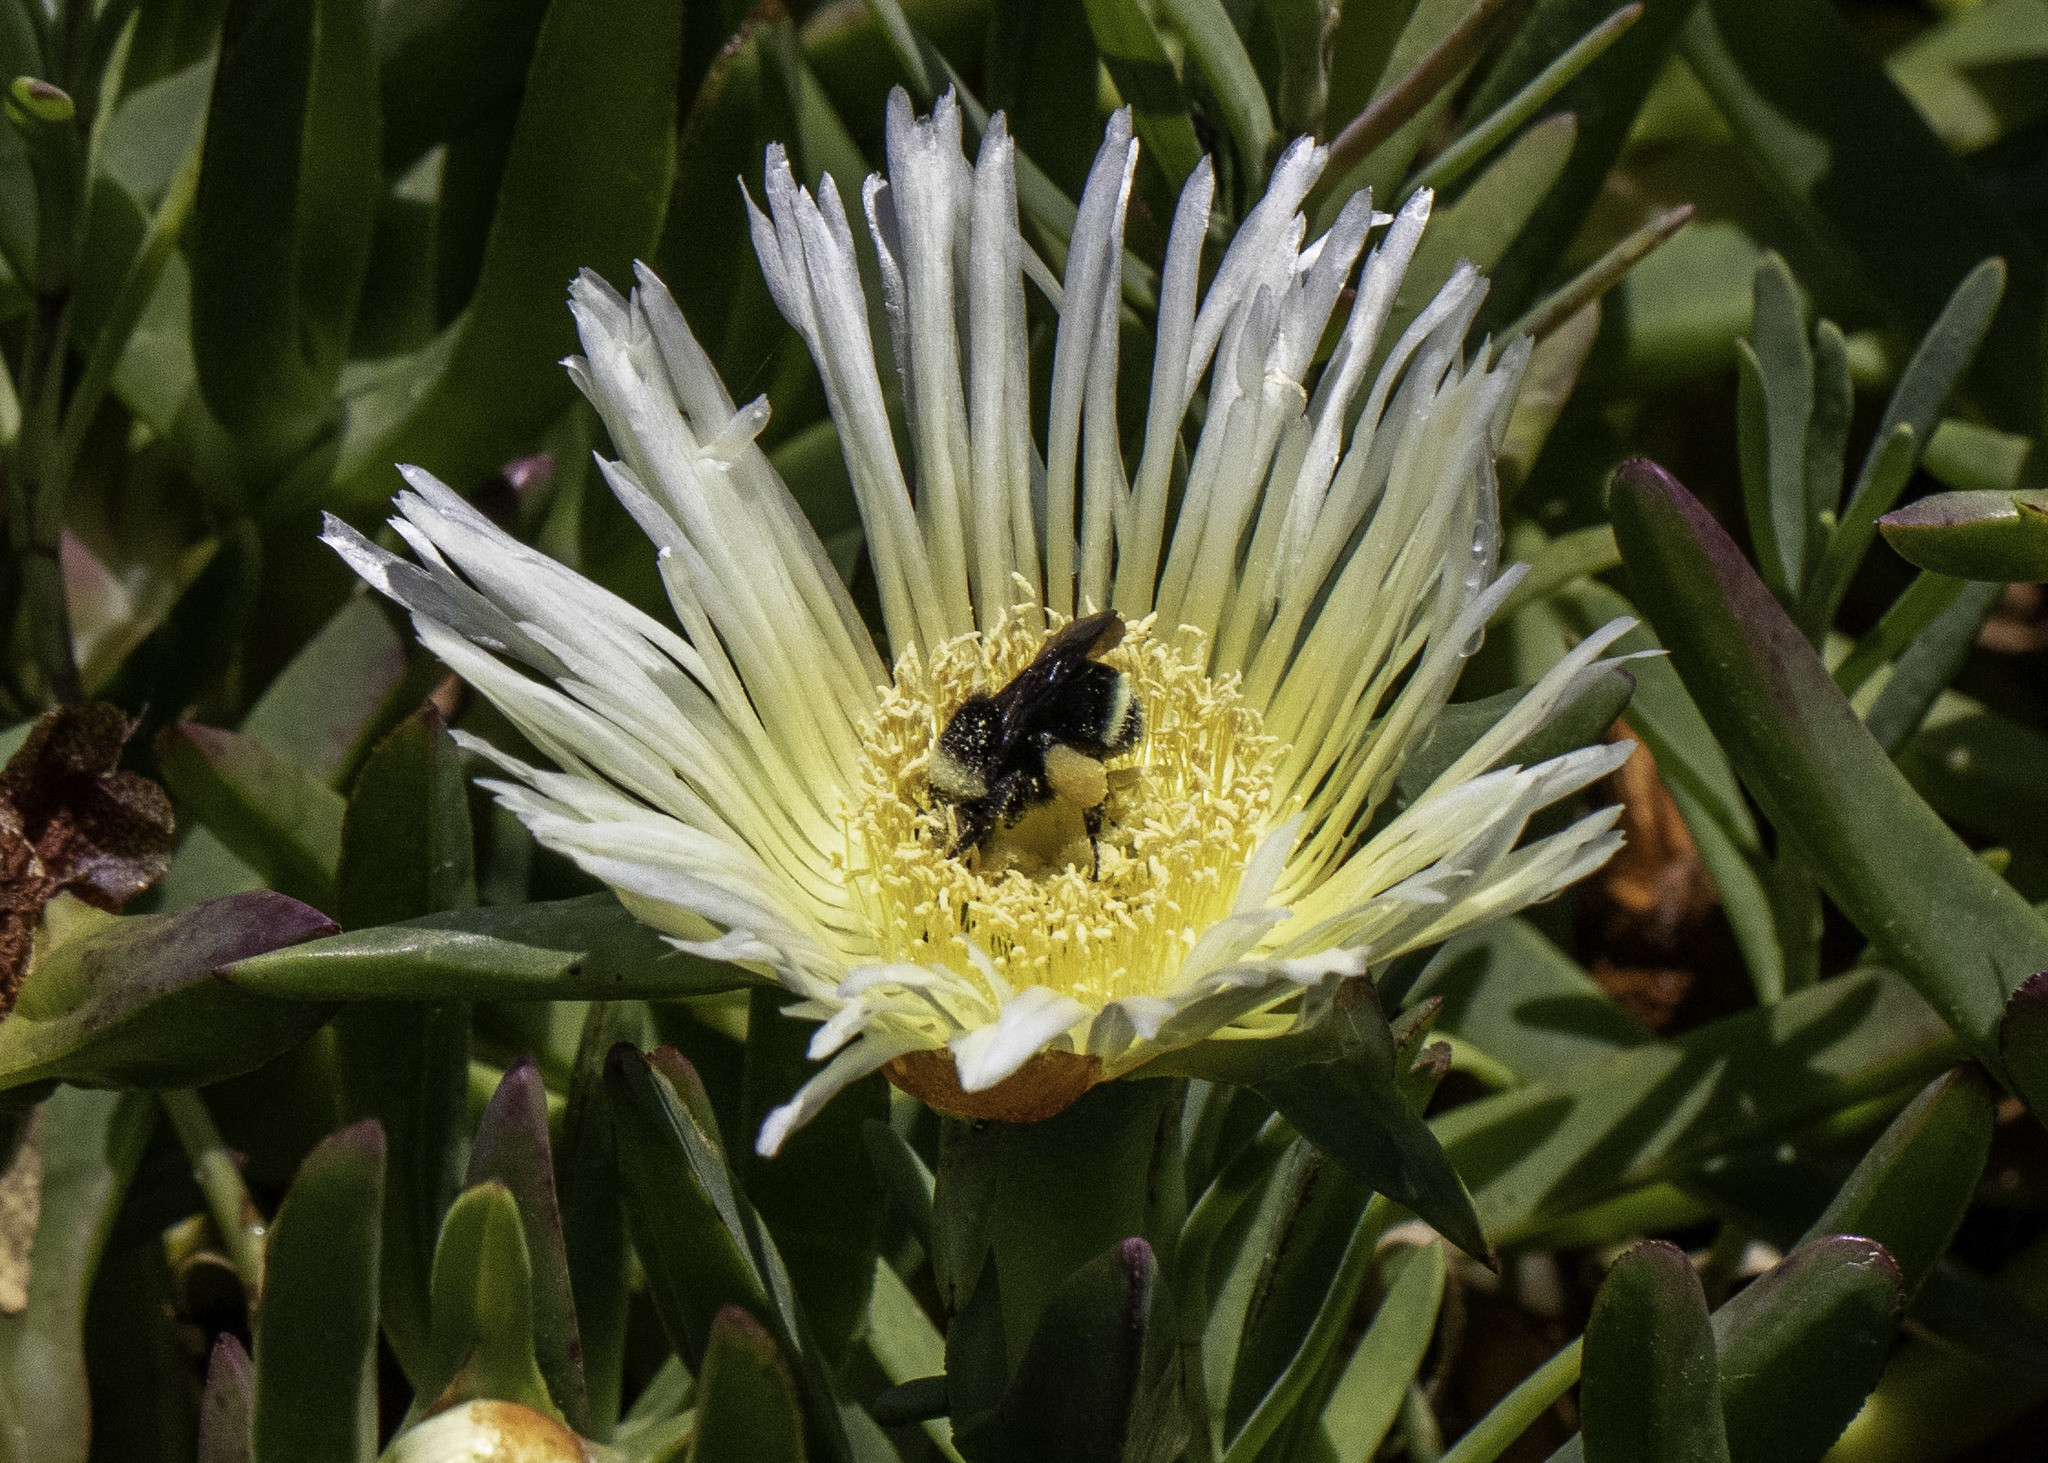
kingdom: Animalia
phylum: Arthropoda
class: Insecta
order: Hymenoptera
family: Apidae
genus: Bombus
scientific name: Bombus vosnesenskii
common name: Vosnesensky bumble bee
